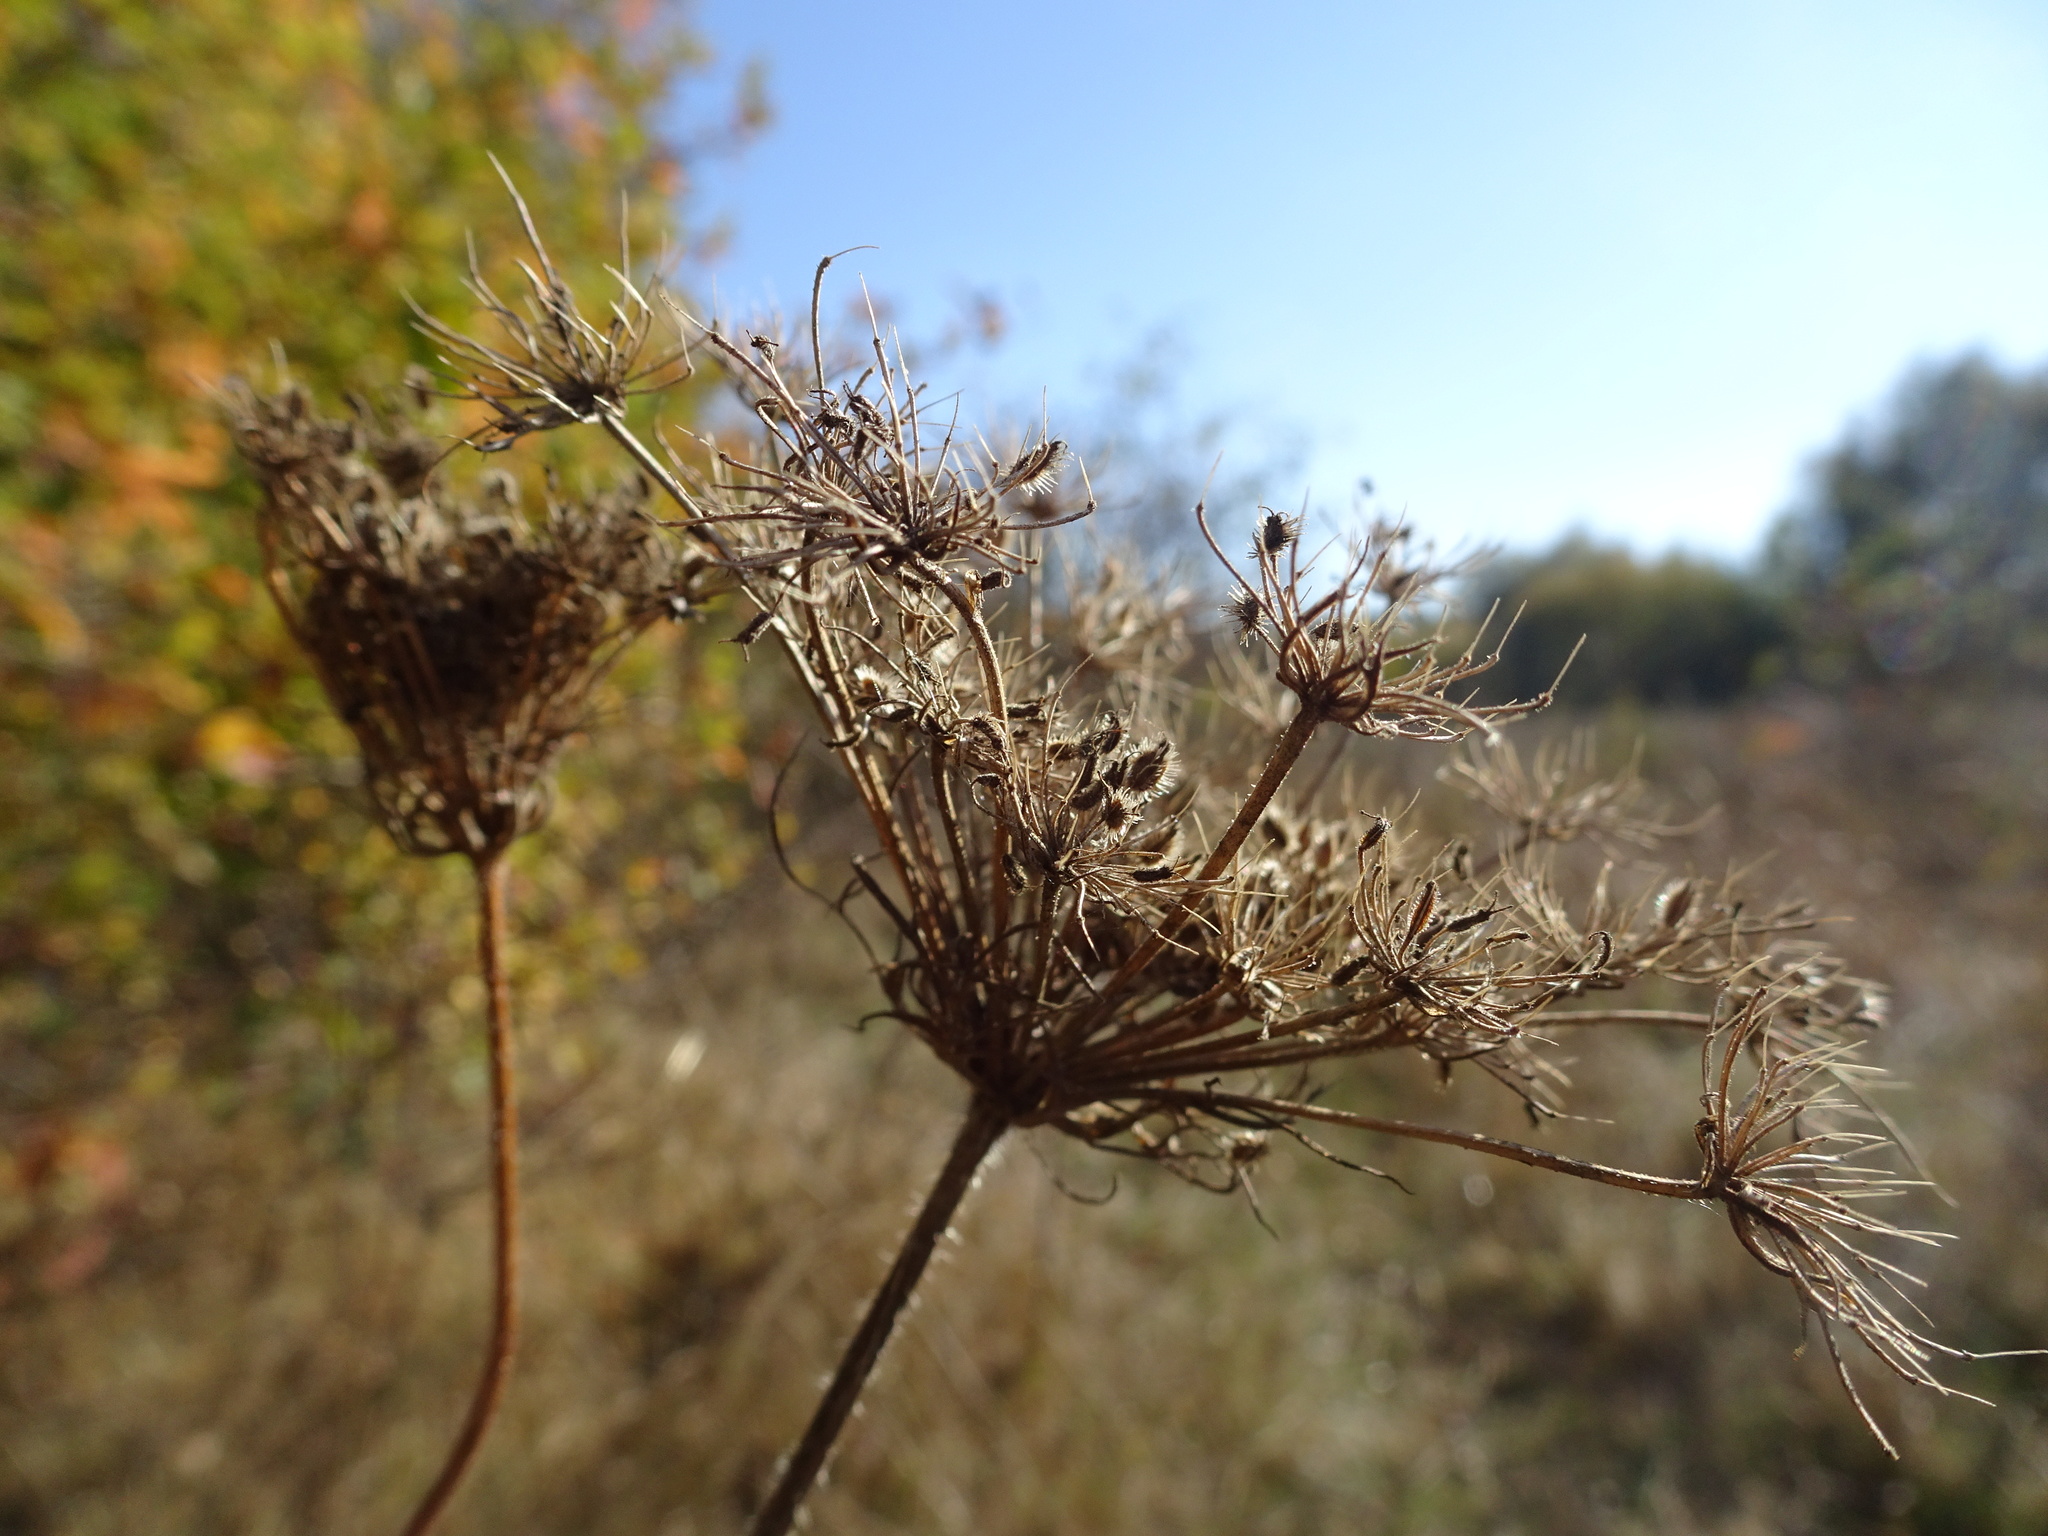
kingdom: Plantae
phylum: Tracheophyta
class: Magnoliopsida
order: Apiales
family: Apiaceae
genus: Daucus
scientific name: Daucus carota
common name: Wild carrot
